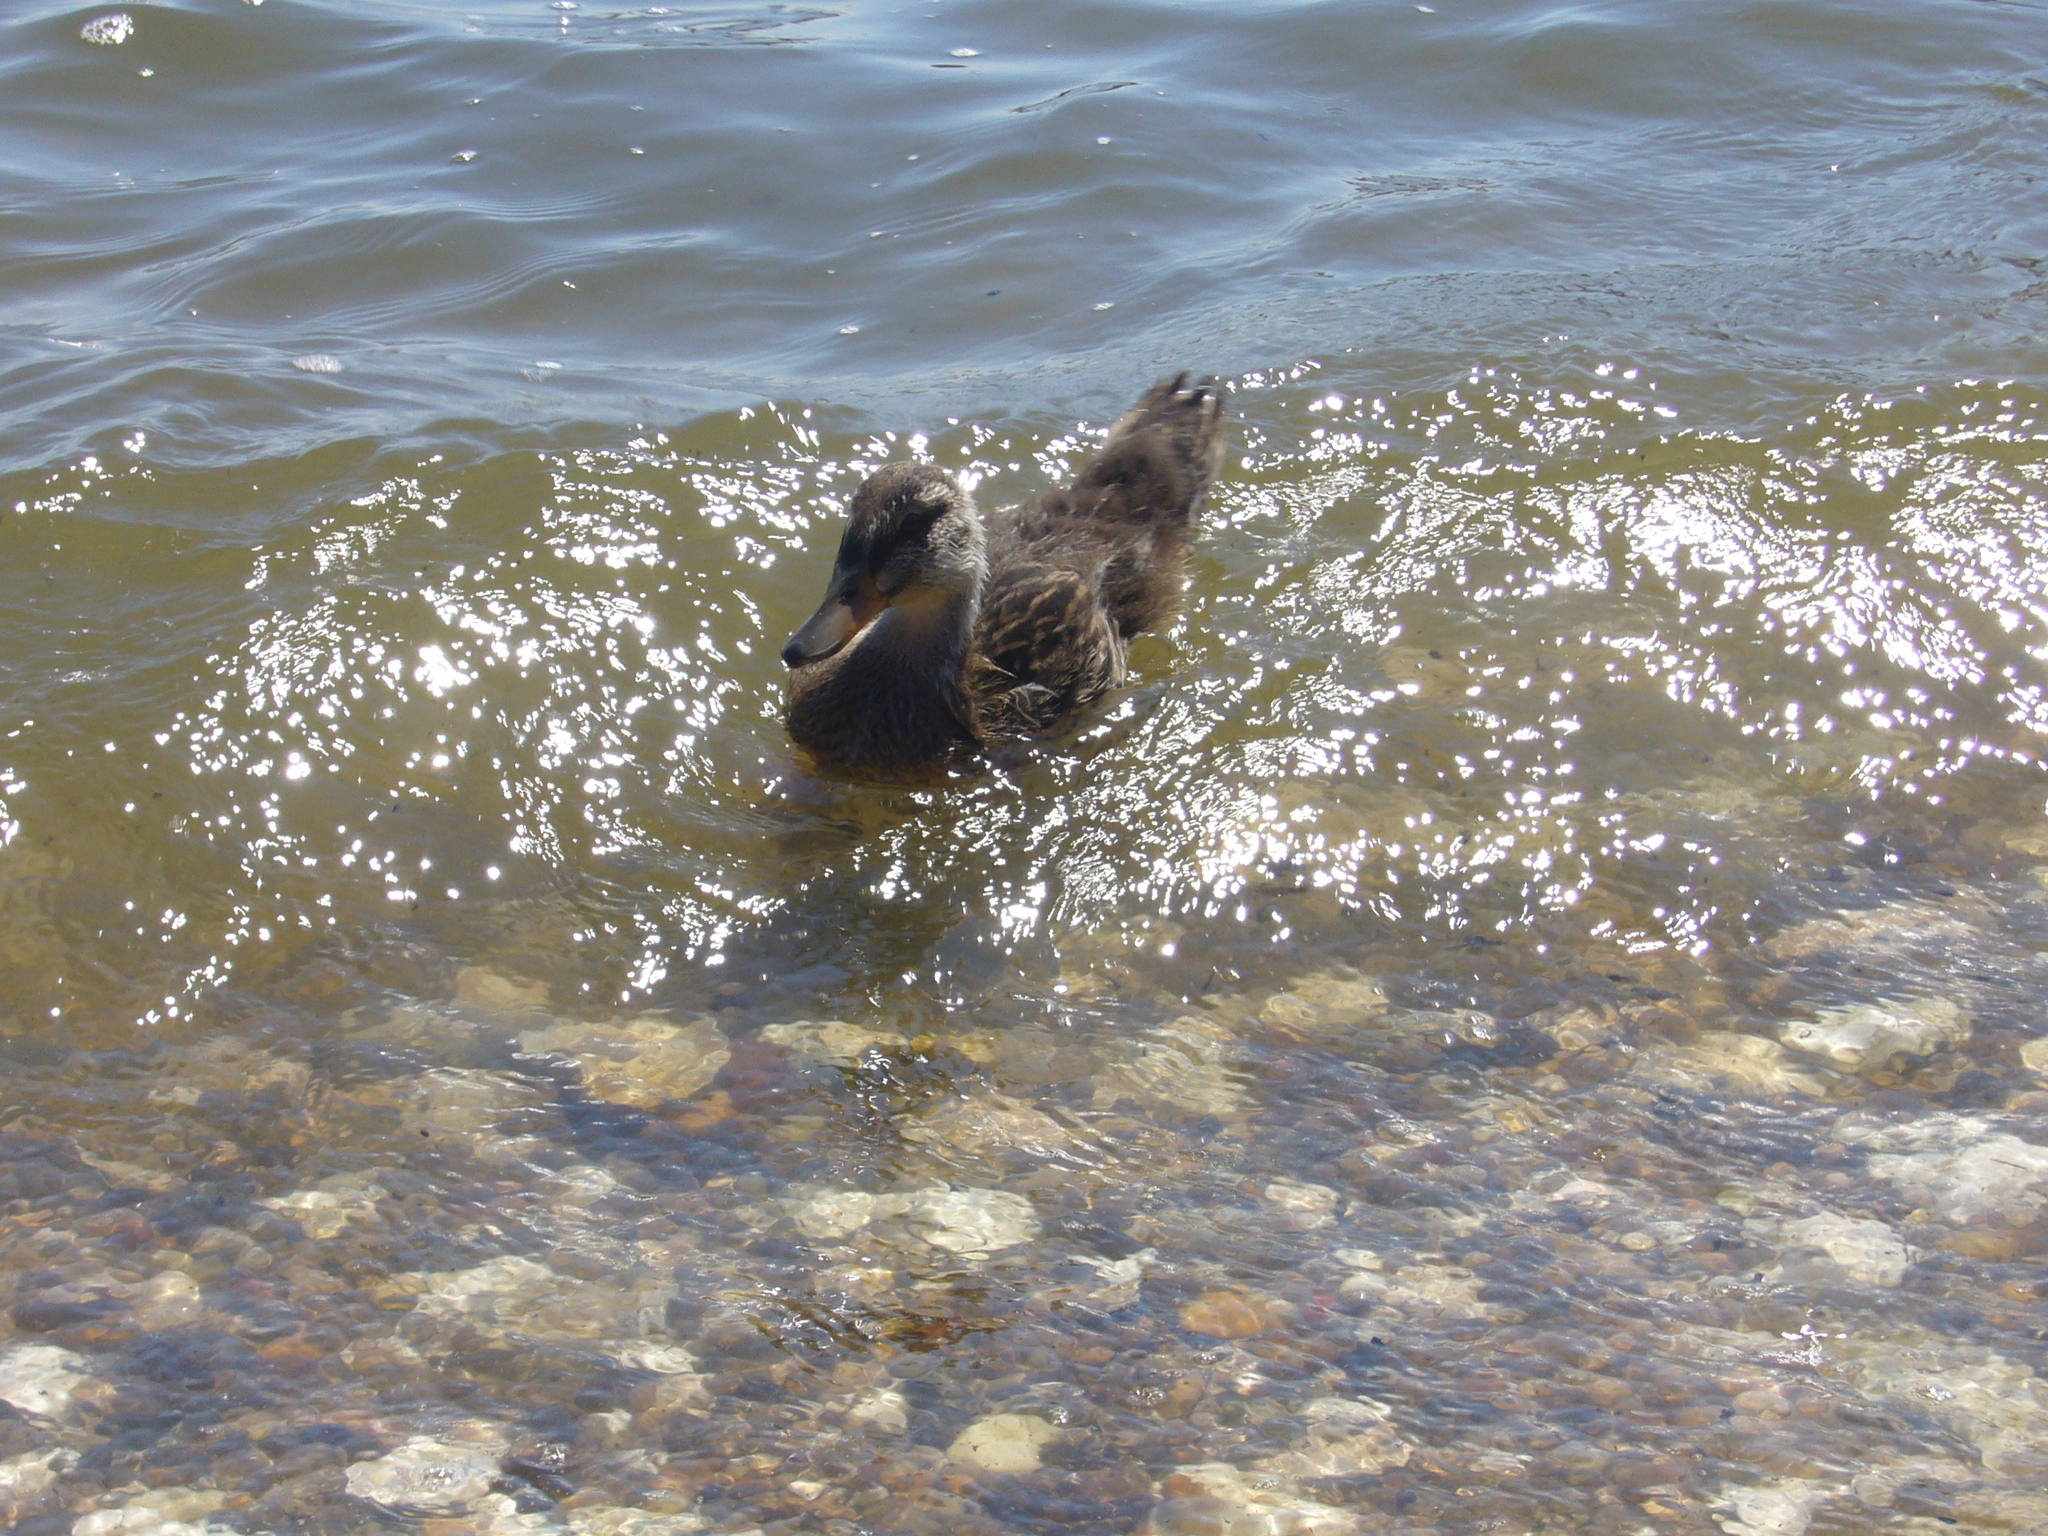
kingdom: Animalia
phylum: Chordata
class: Aves
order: Anseriformes
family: Anatidae
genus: Anas
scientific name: Anas platyrhynchos
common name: Mallard
